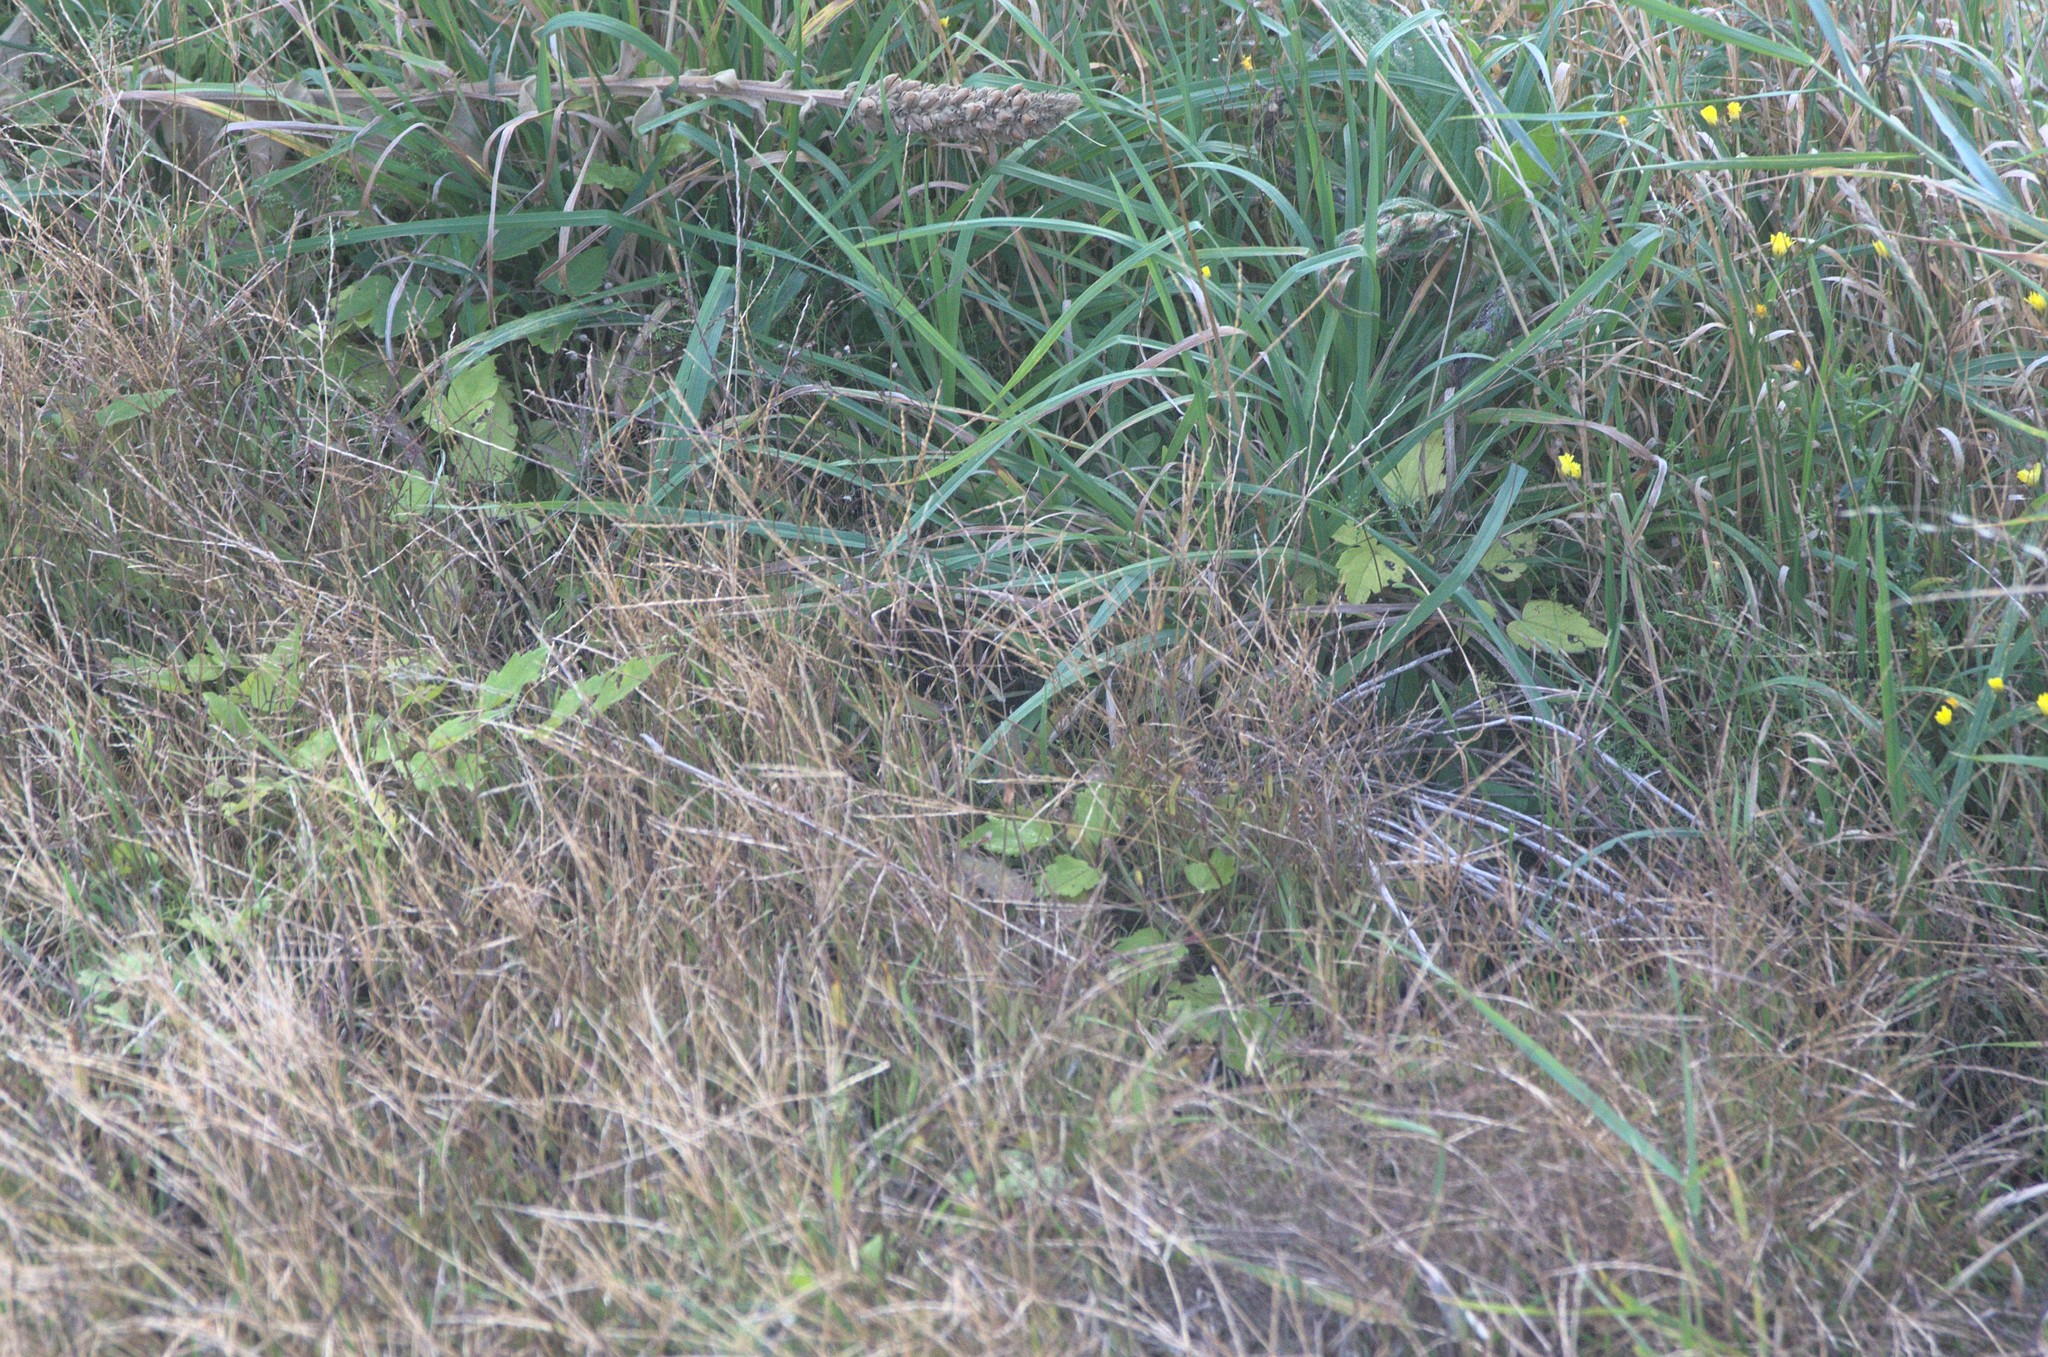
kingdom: Plantae
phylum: Tracheophyta
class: Magnoliopsida
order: Ranunculales
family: Ranunculaceae
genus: Clematis
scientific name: Clematis vitalba
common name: Evergreen clematis
